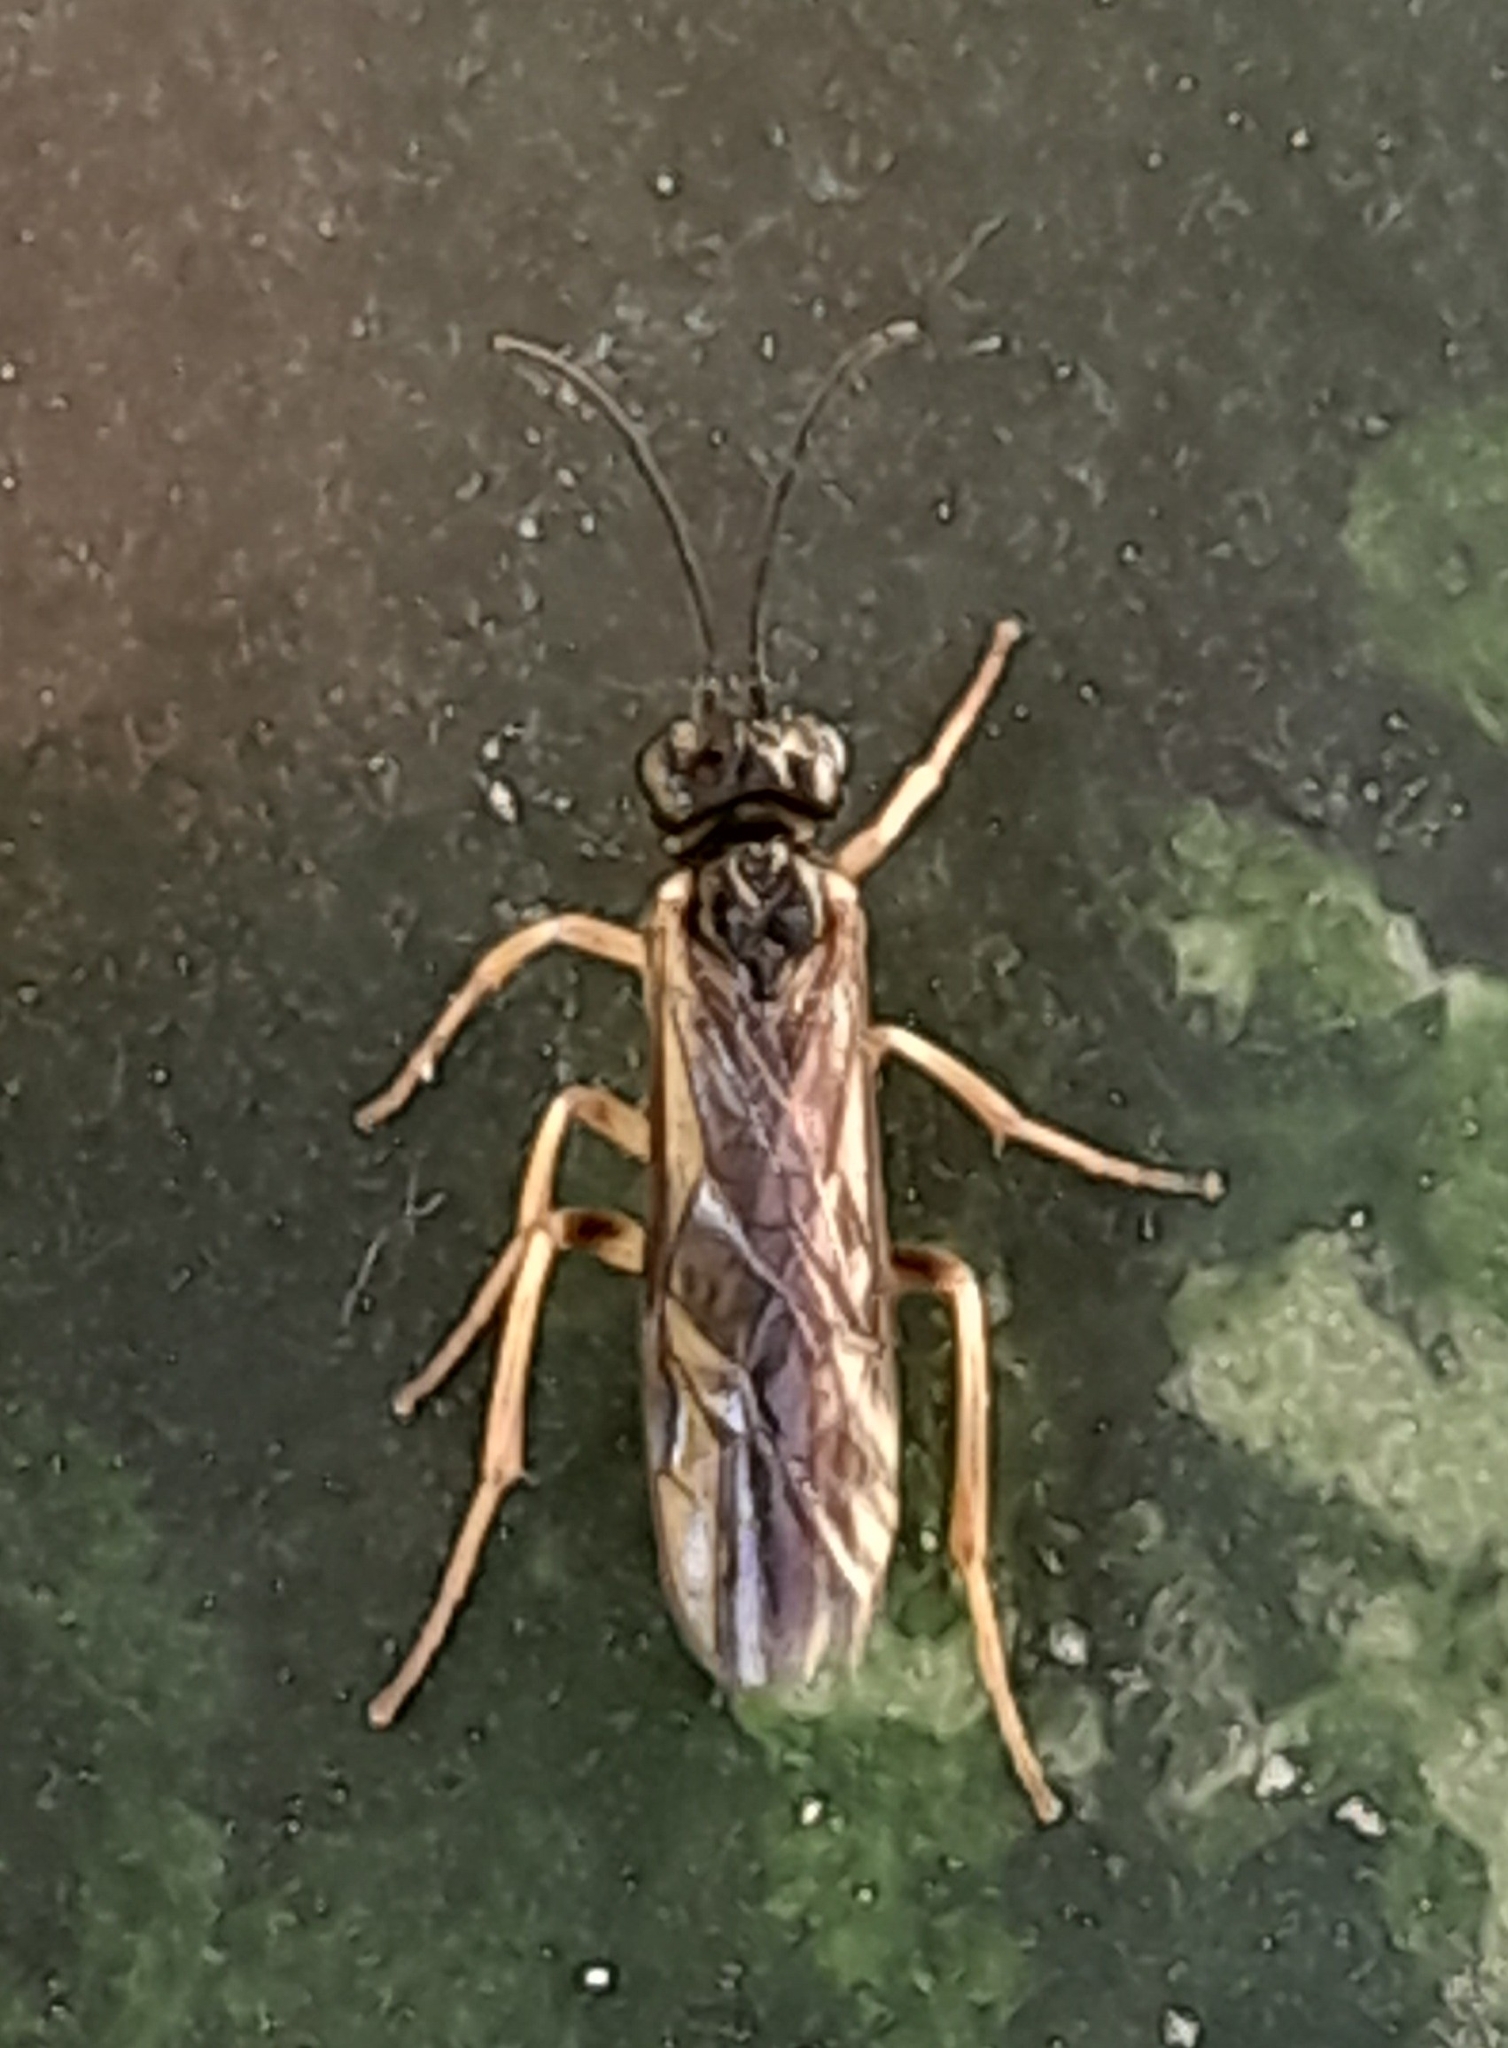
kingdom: Animalia
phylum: Arthropoda
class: Insecta
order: Hymenoptera
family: Tenthredinidae
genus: Ametastegia
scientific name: Ametastegia pallipes
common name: Pelopée
